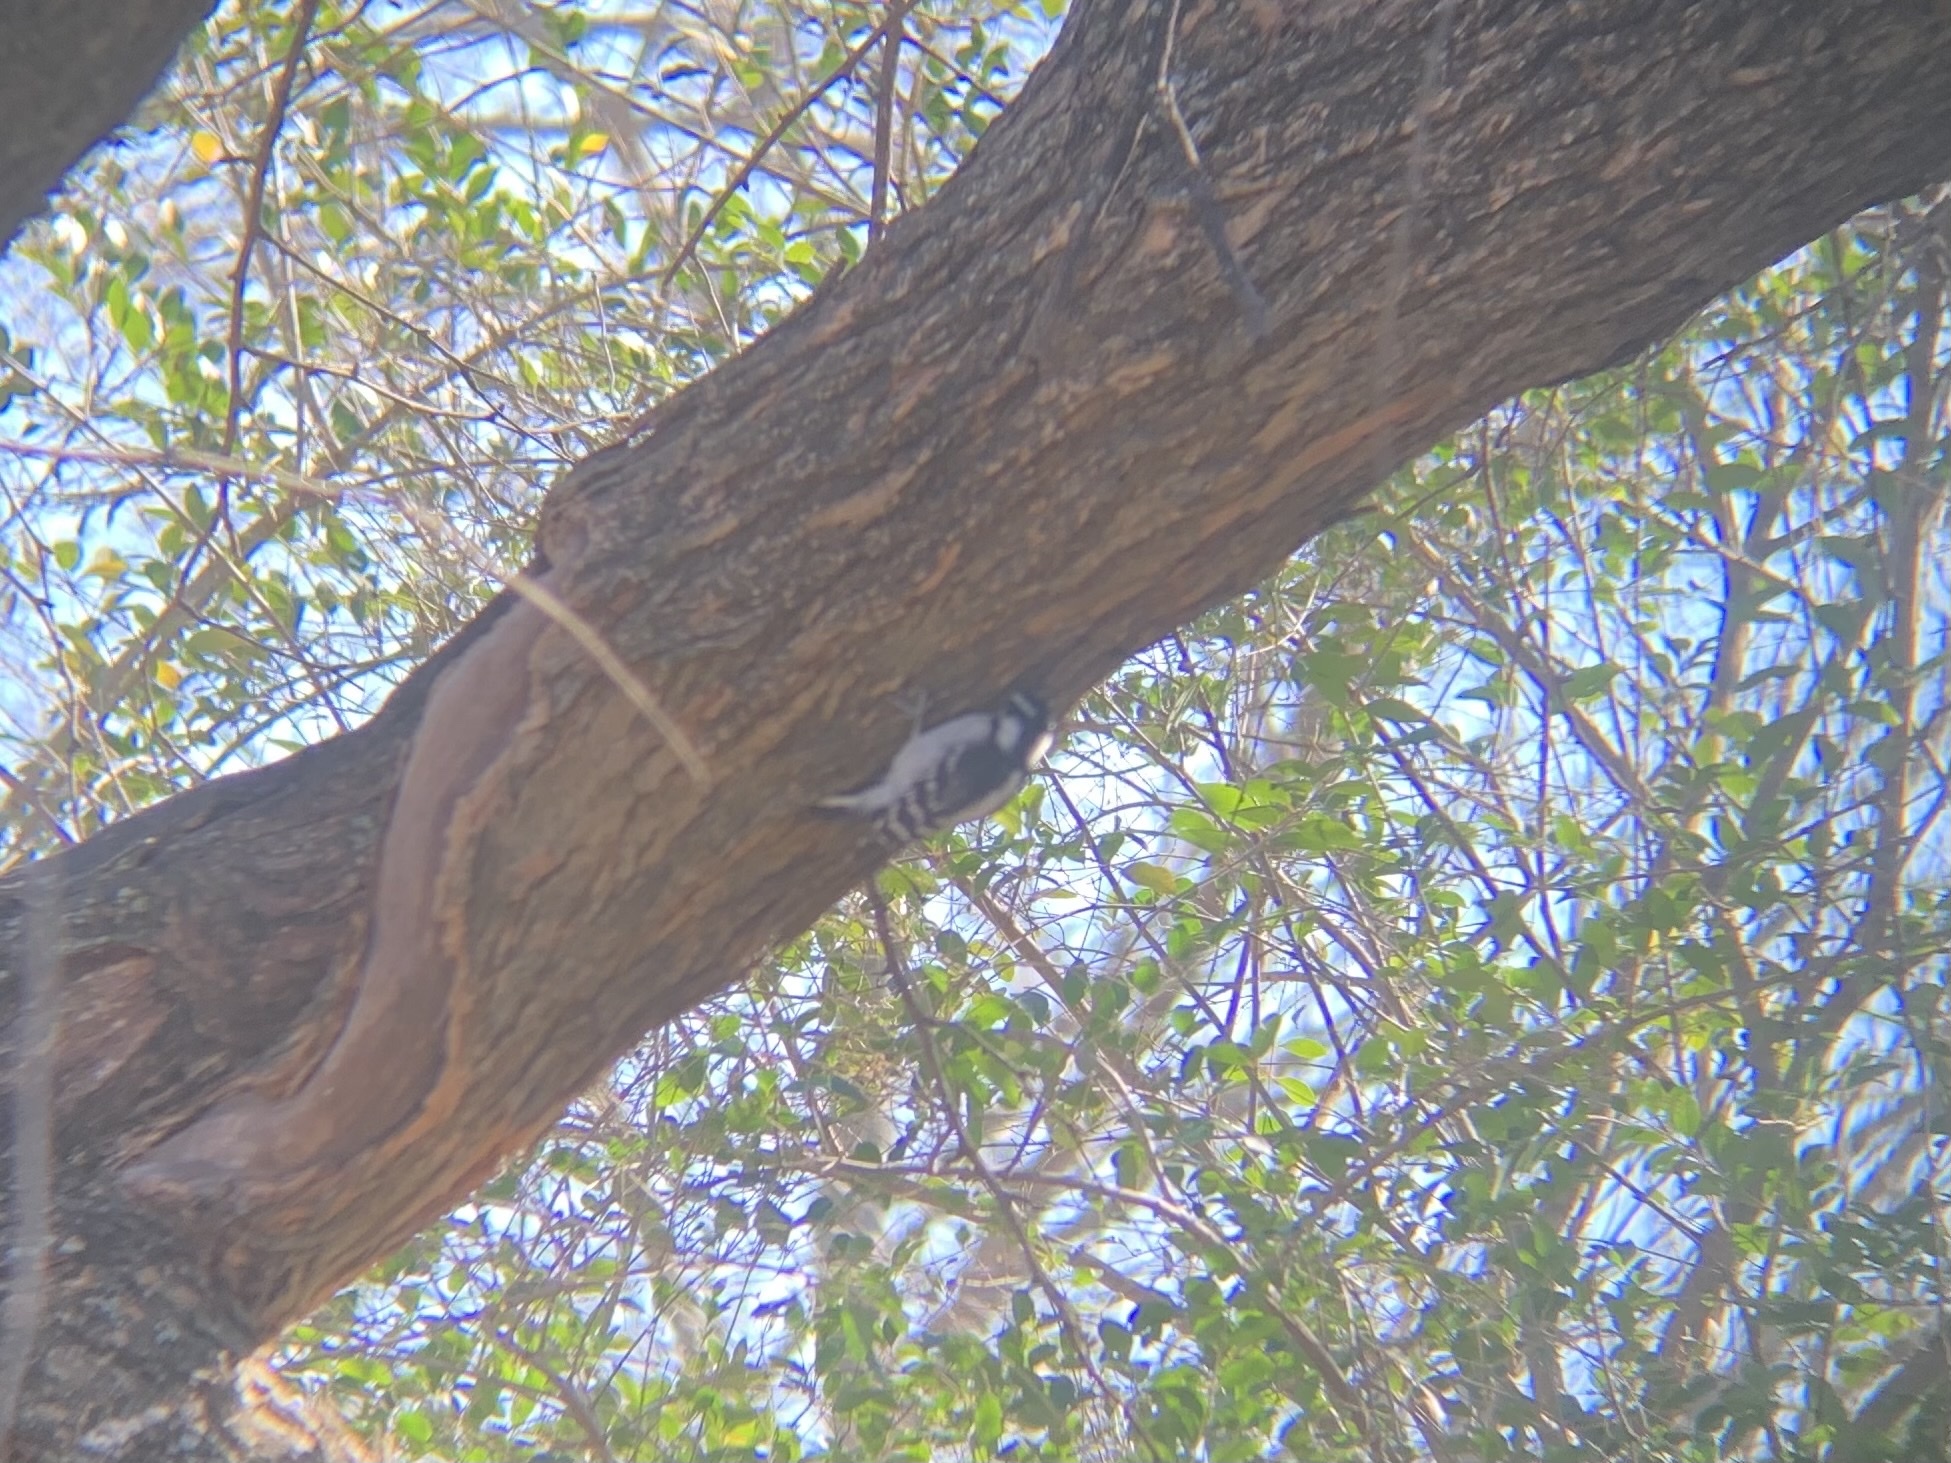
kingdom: Animalia
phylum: Chordata
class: Aves
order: Piciformes
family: Picidae
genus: Dryobates
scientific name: Dryobates pubescens
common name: Downy woodpecker
